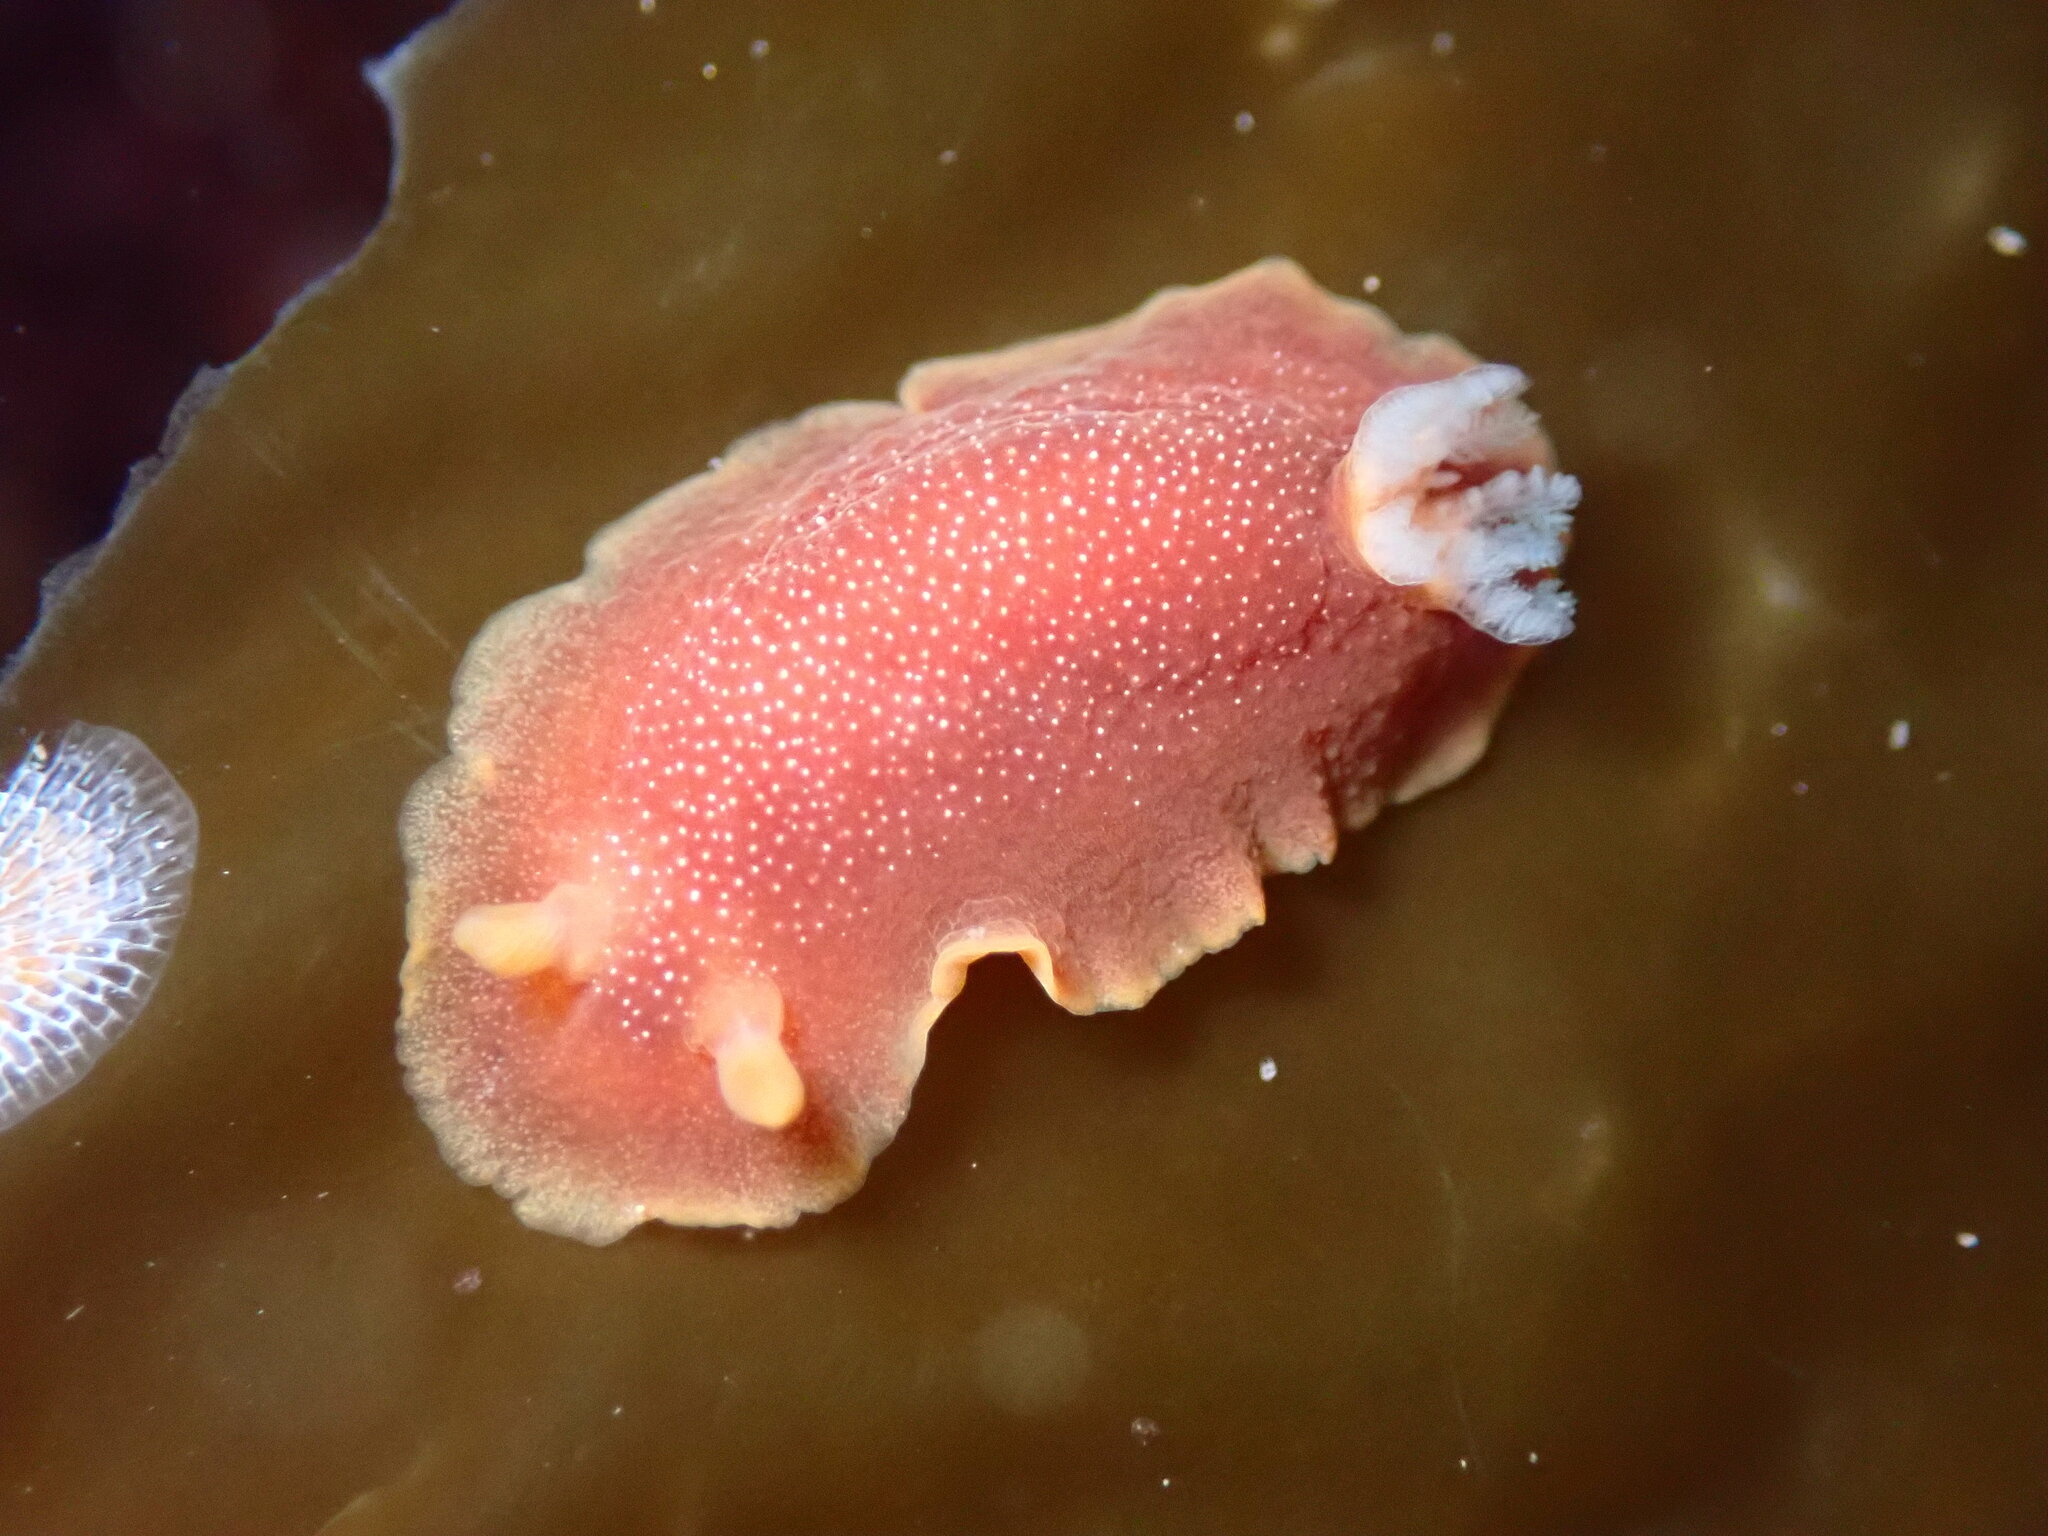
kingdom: Animalia
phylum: Mollusca
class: Gastropoda
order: Nudibranchia
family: Dendrodorididae
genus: Doriopsilla
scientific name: Doriopsilla albopunctata
